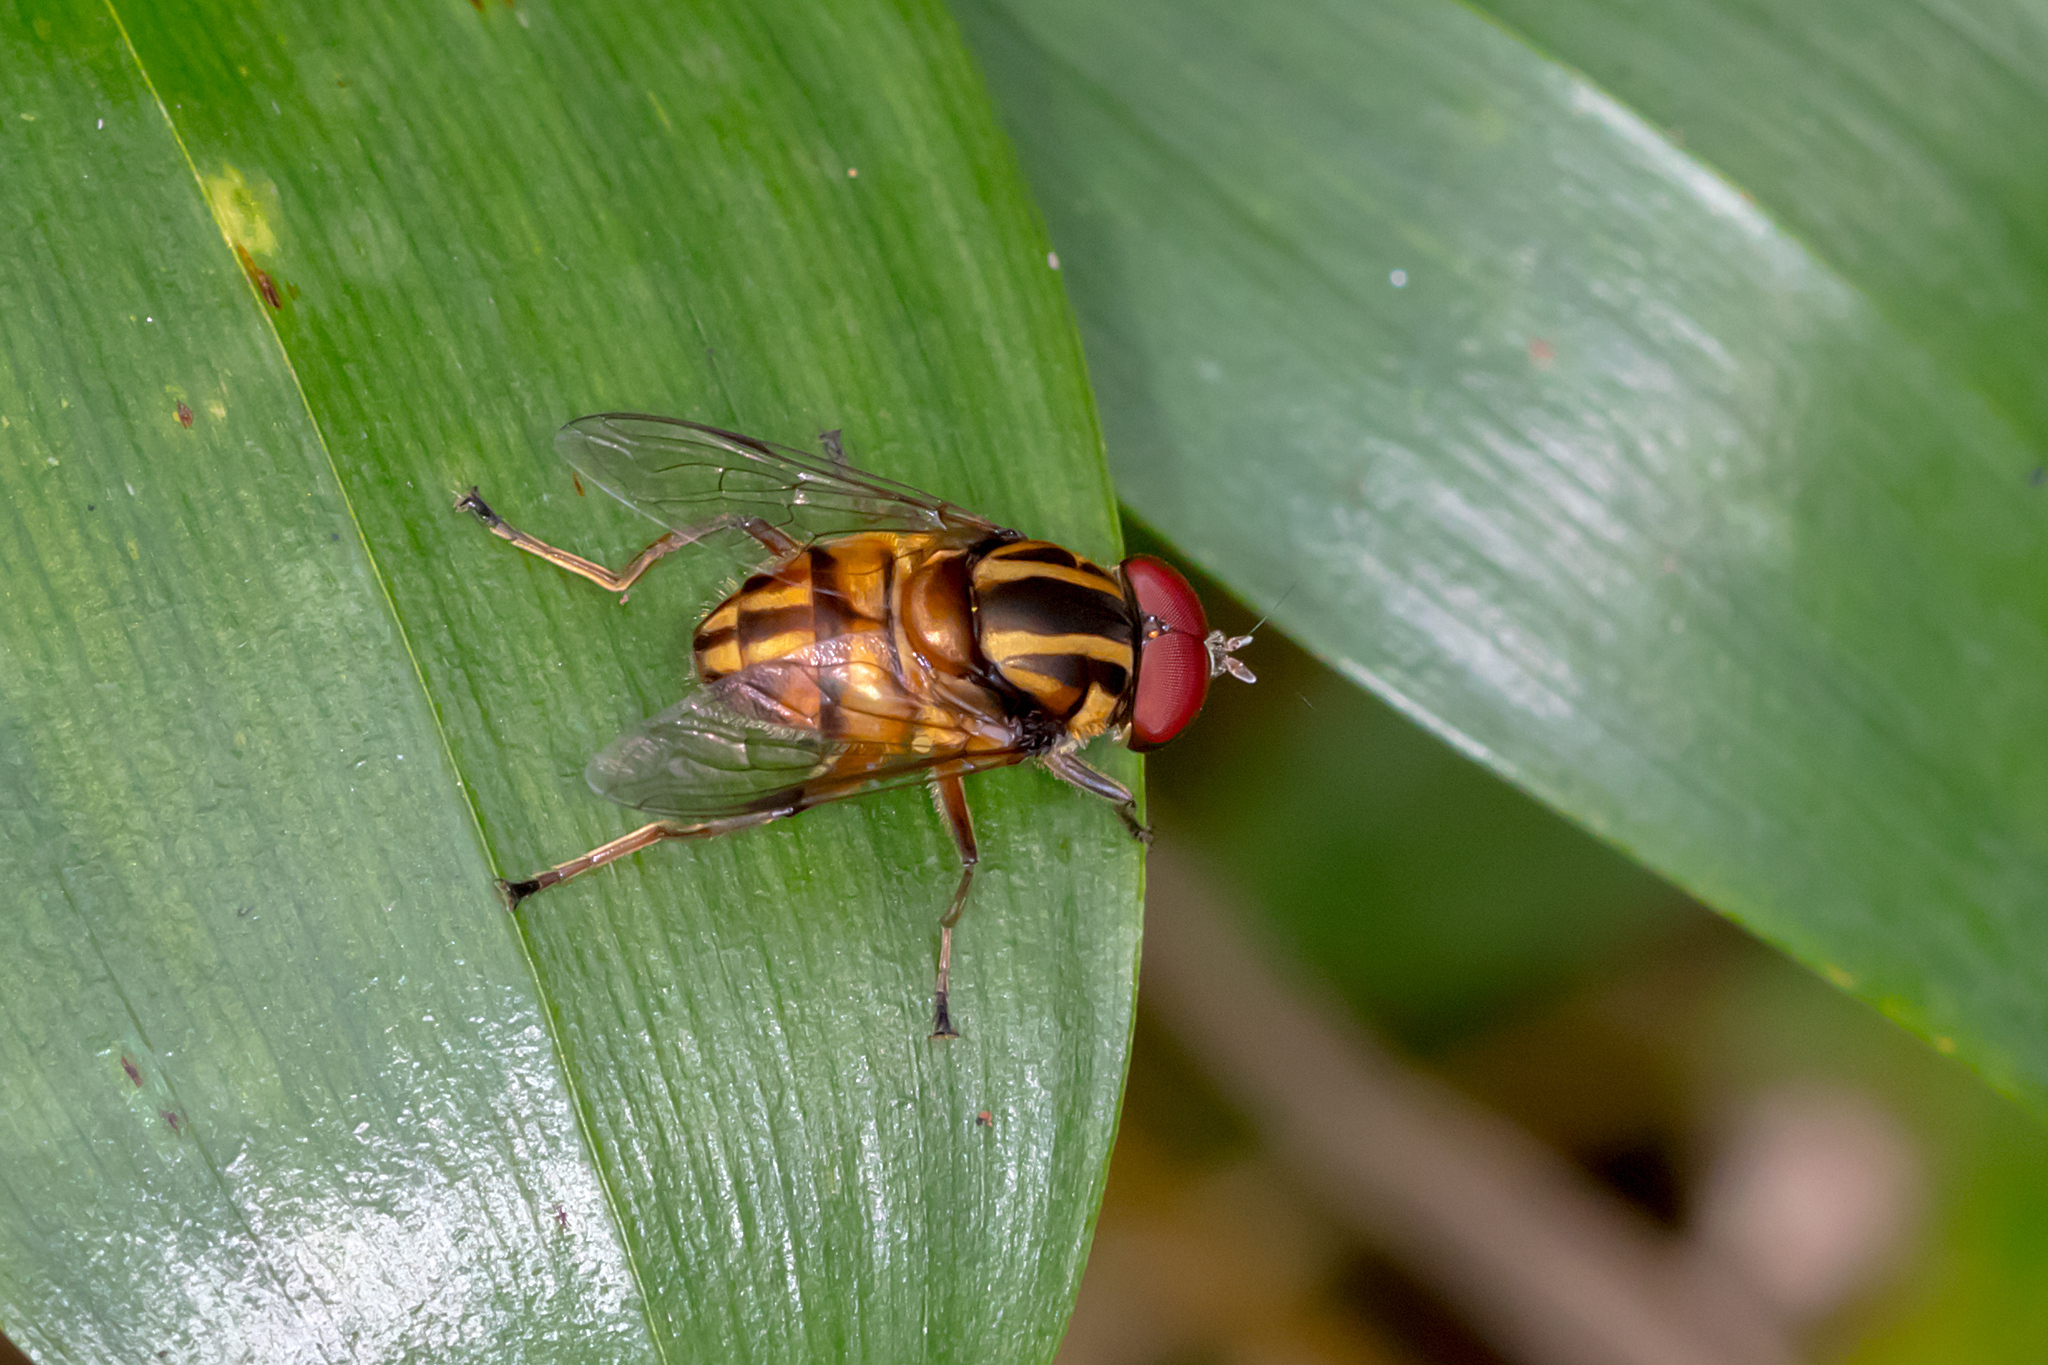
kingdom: Animalia
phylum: Arthropoda
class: Insecta
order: Diptera
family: Syrphidae
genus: Austalis
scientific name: Austalis conjucta
